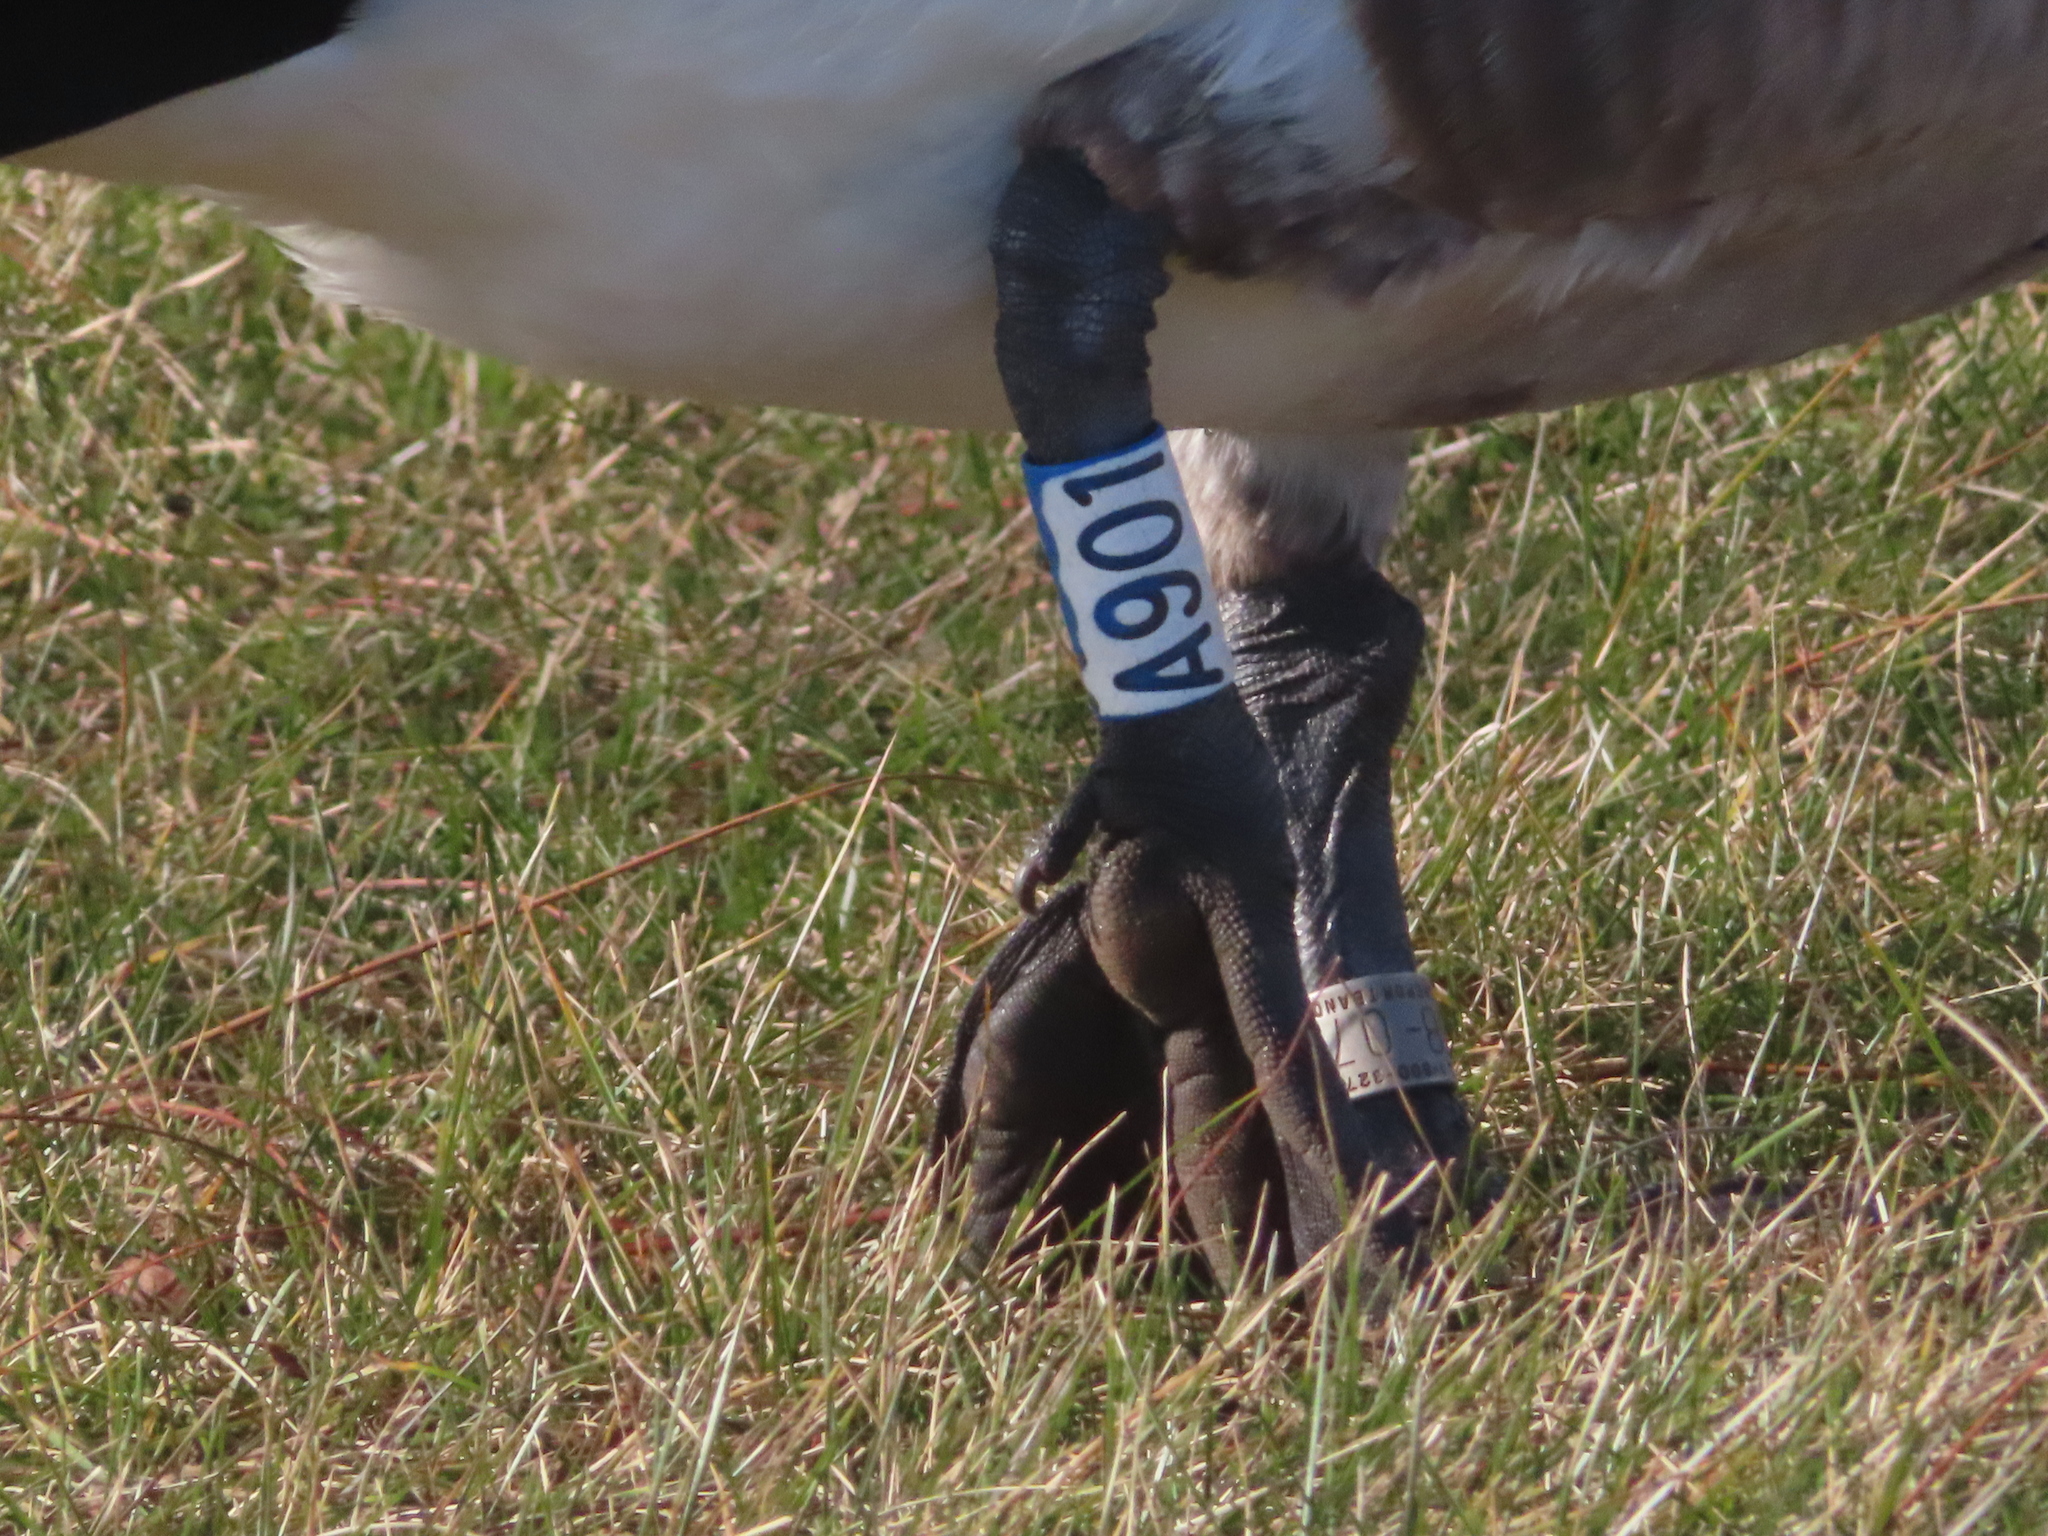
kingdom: Animalia
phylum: Chordata
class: Aves
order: Anseriformes
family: Anatidae
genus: Branta
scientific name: Branta canadensis
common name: Canada goose
